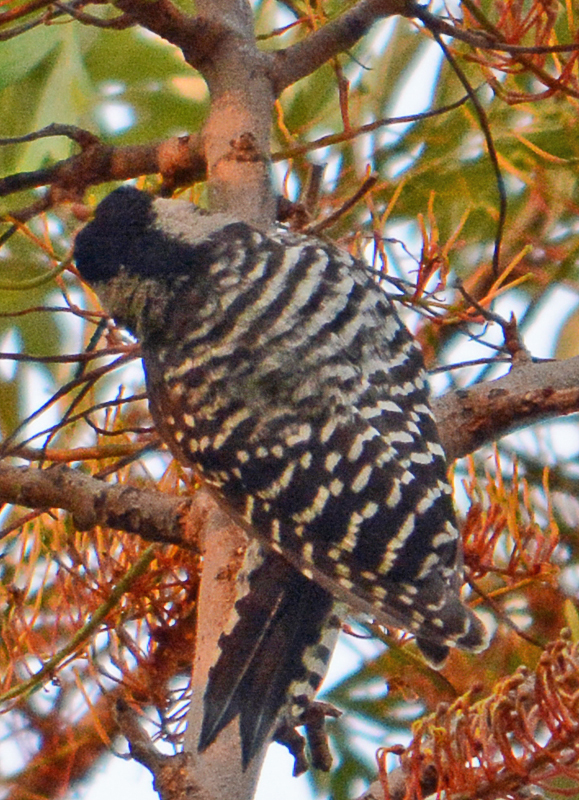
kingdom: Animalia
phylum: Chordata
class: Aves
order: Piciformes
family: Picidae
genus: Dryobates
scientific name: Dryobates scalaris
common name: Ladder-backed woodpecker
